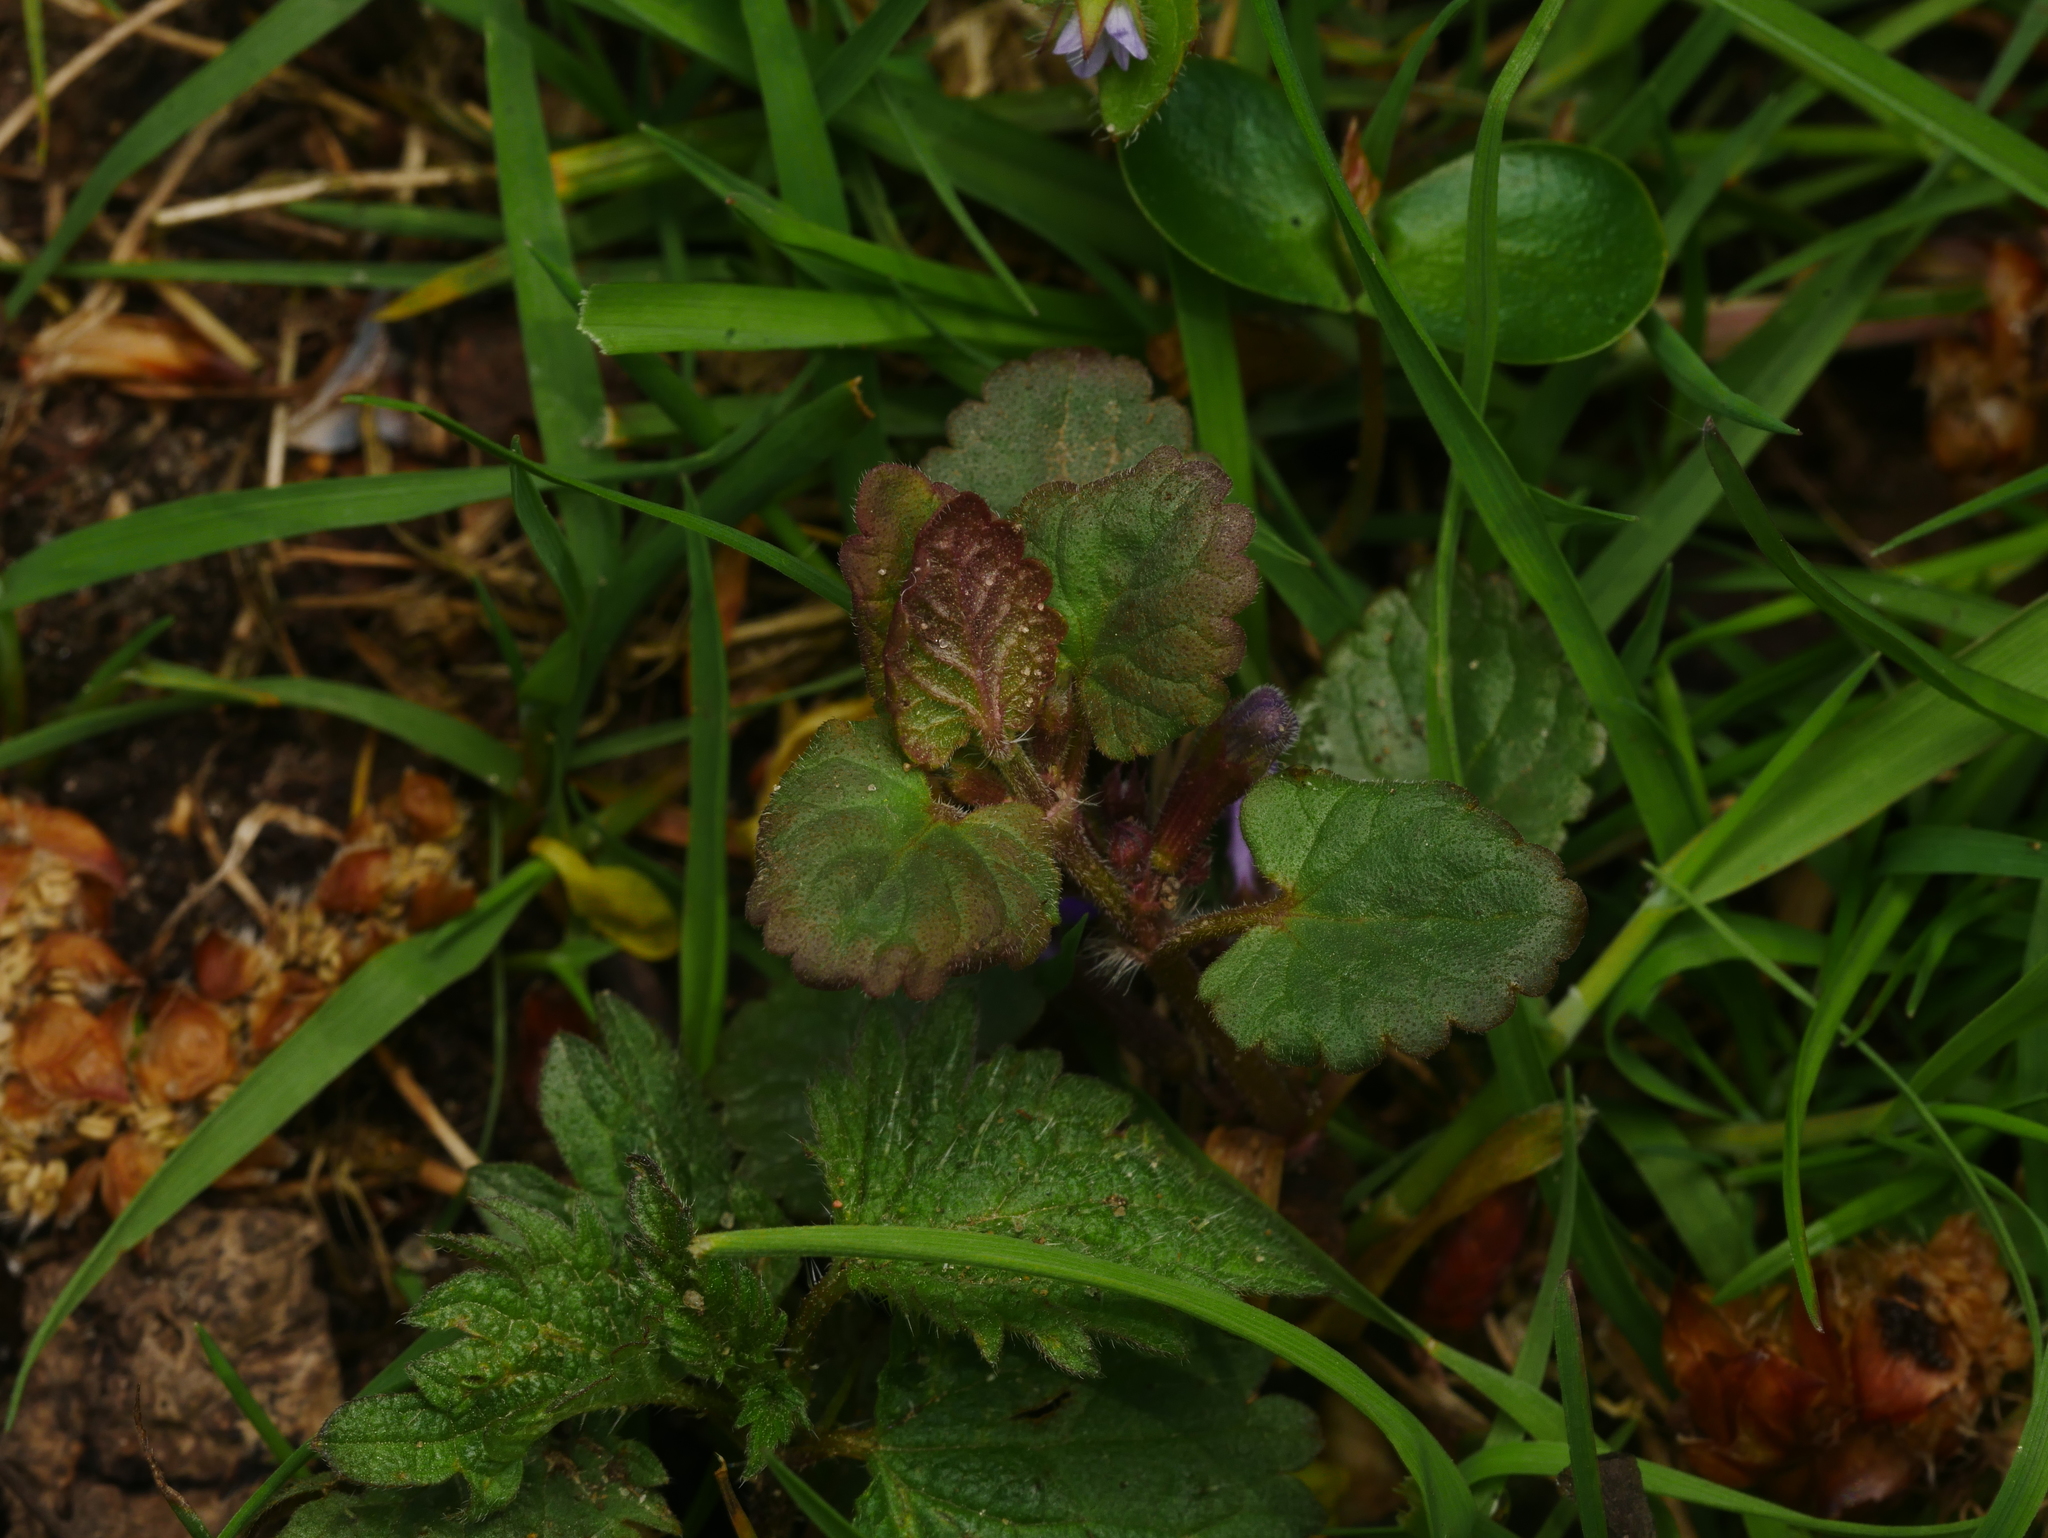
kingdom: Plantae
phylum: Tracheophyta
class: Magnoliopsida
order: Lamiales
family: Lamiaceae
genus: Glechoma
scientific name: Glechoma hederacea
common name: Ground ivy
